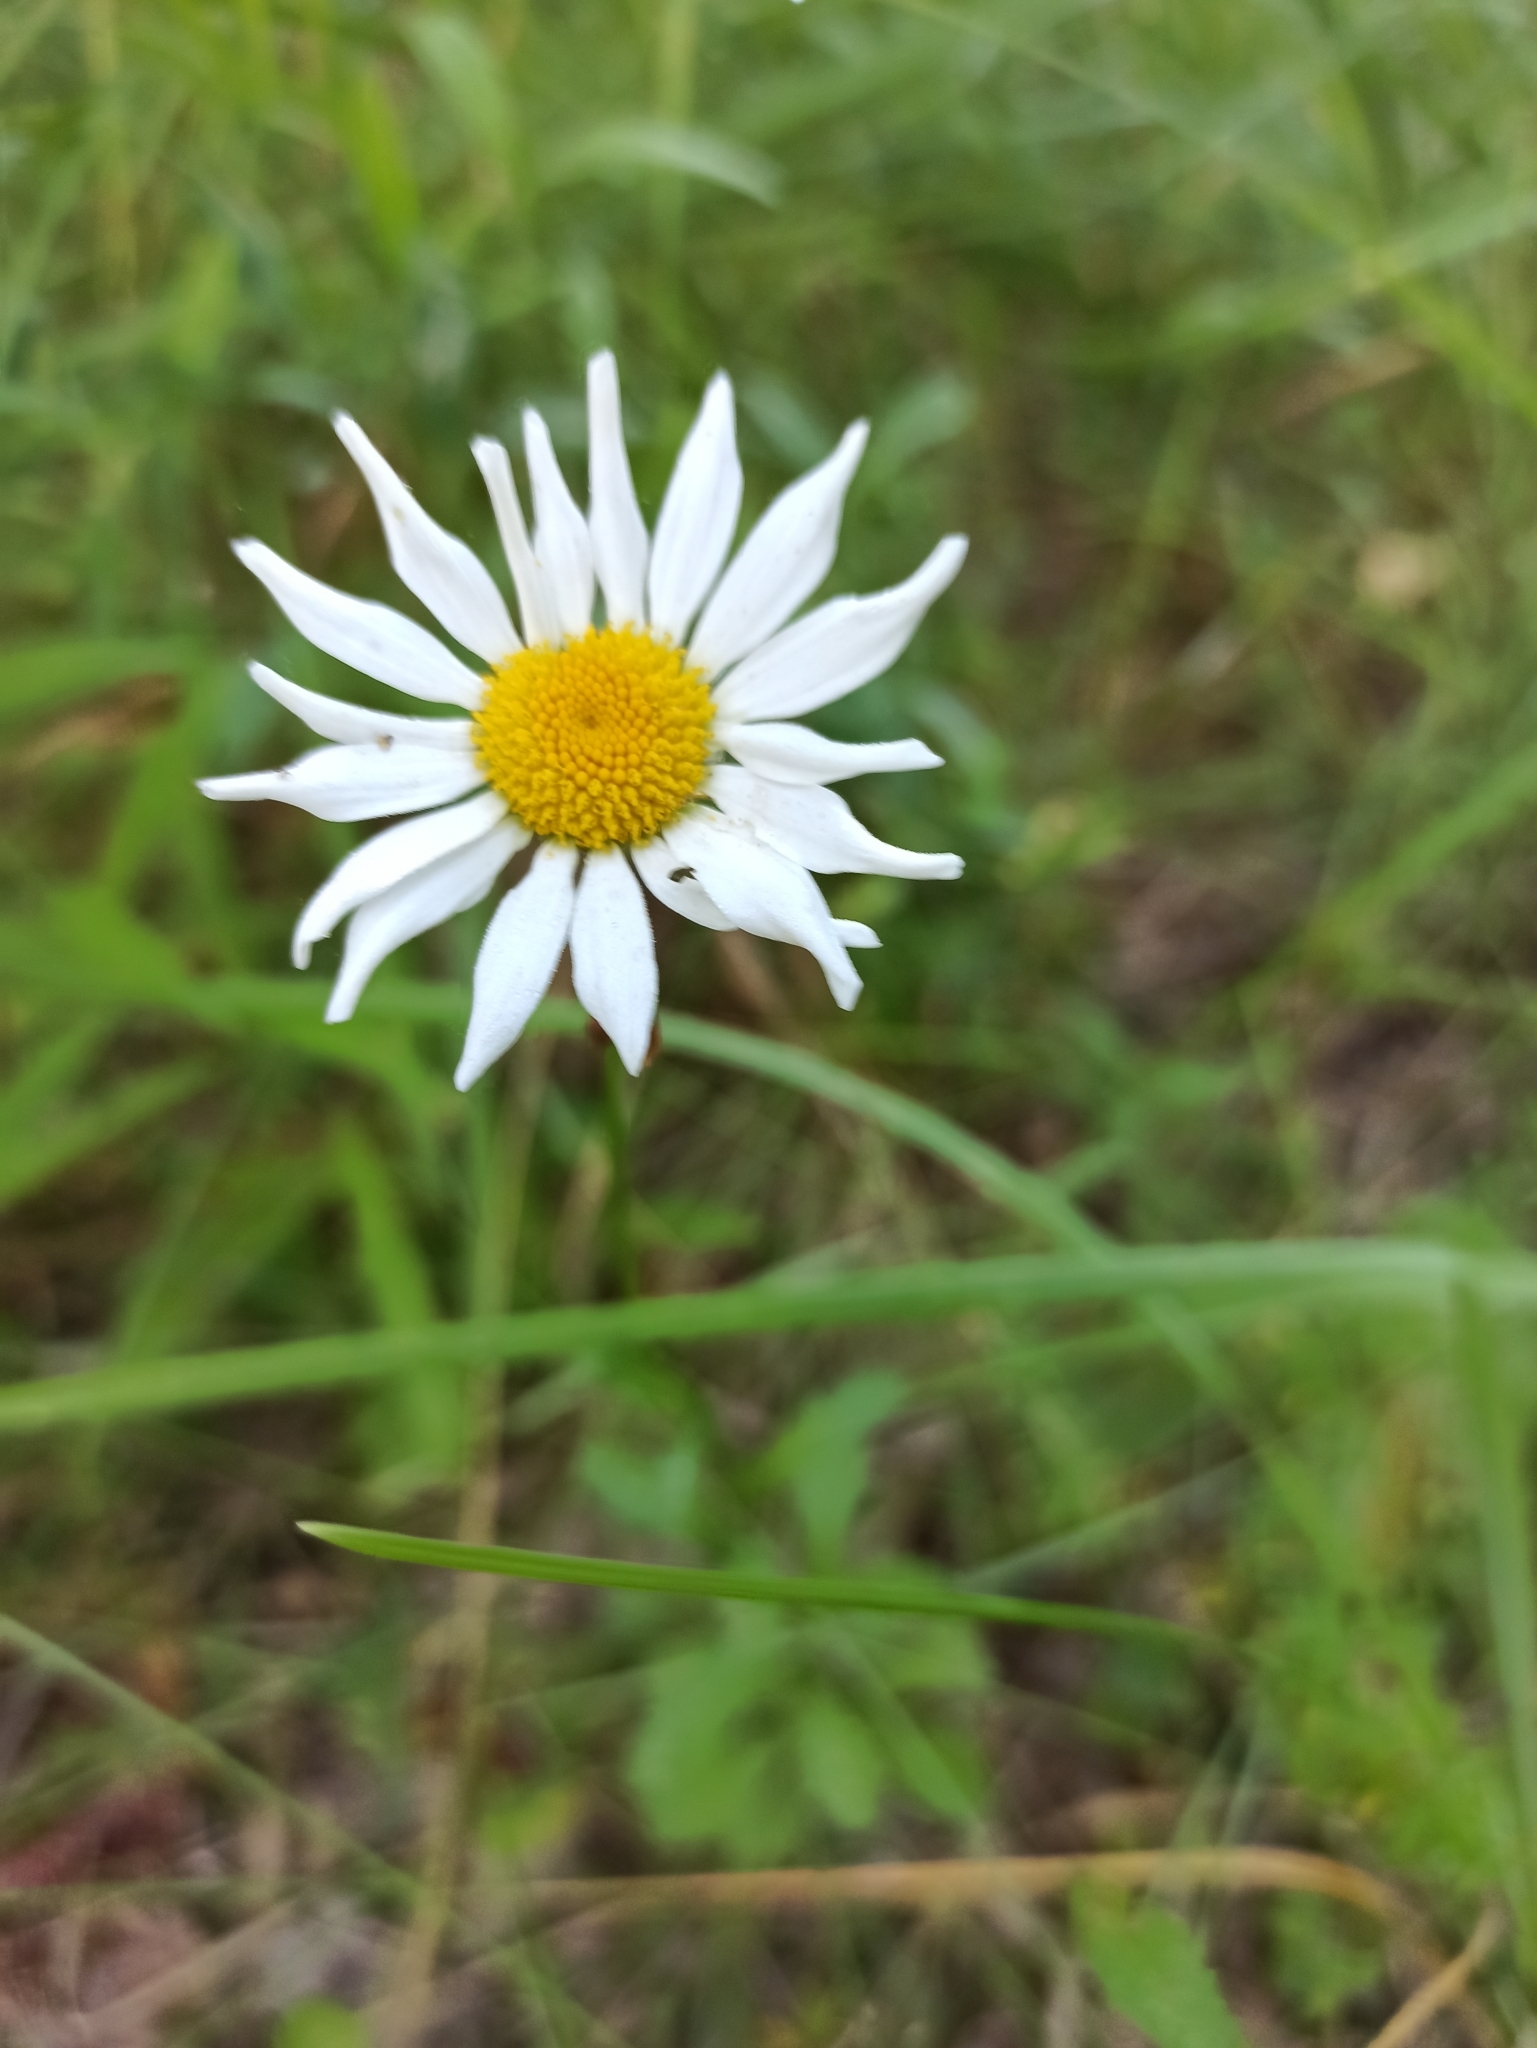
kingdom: Plantae
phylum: Tracheophyta
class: Magnoliopsida
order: Asterales
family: Asteraceae
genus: Leucanthemum
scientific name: Leucanthemum vulgare
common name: Oxeye daisy
